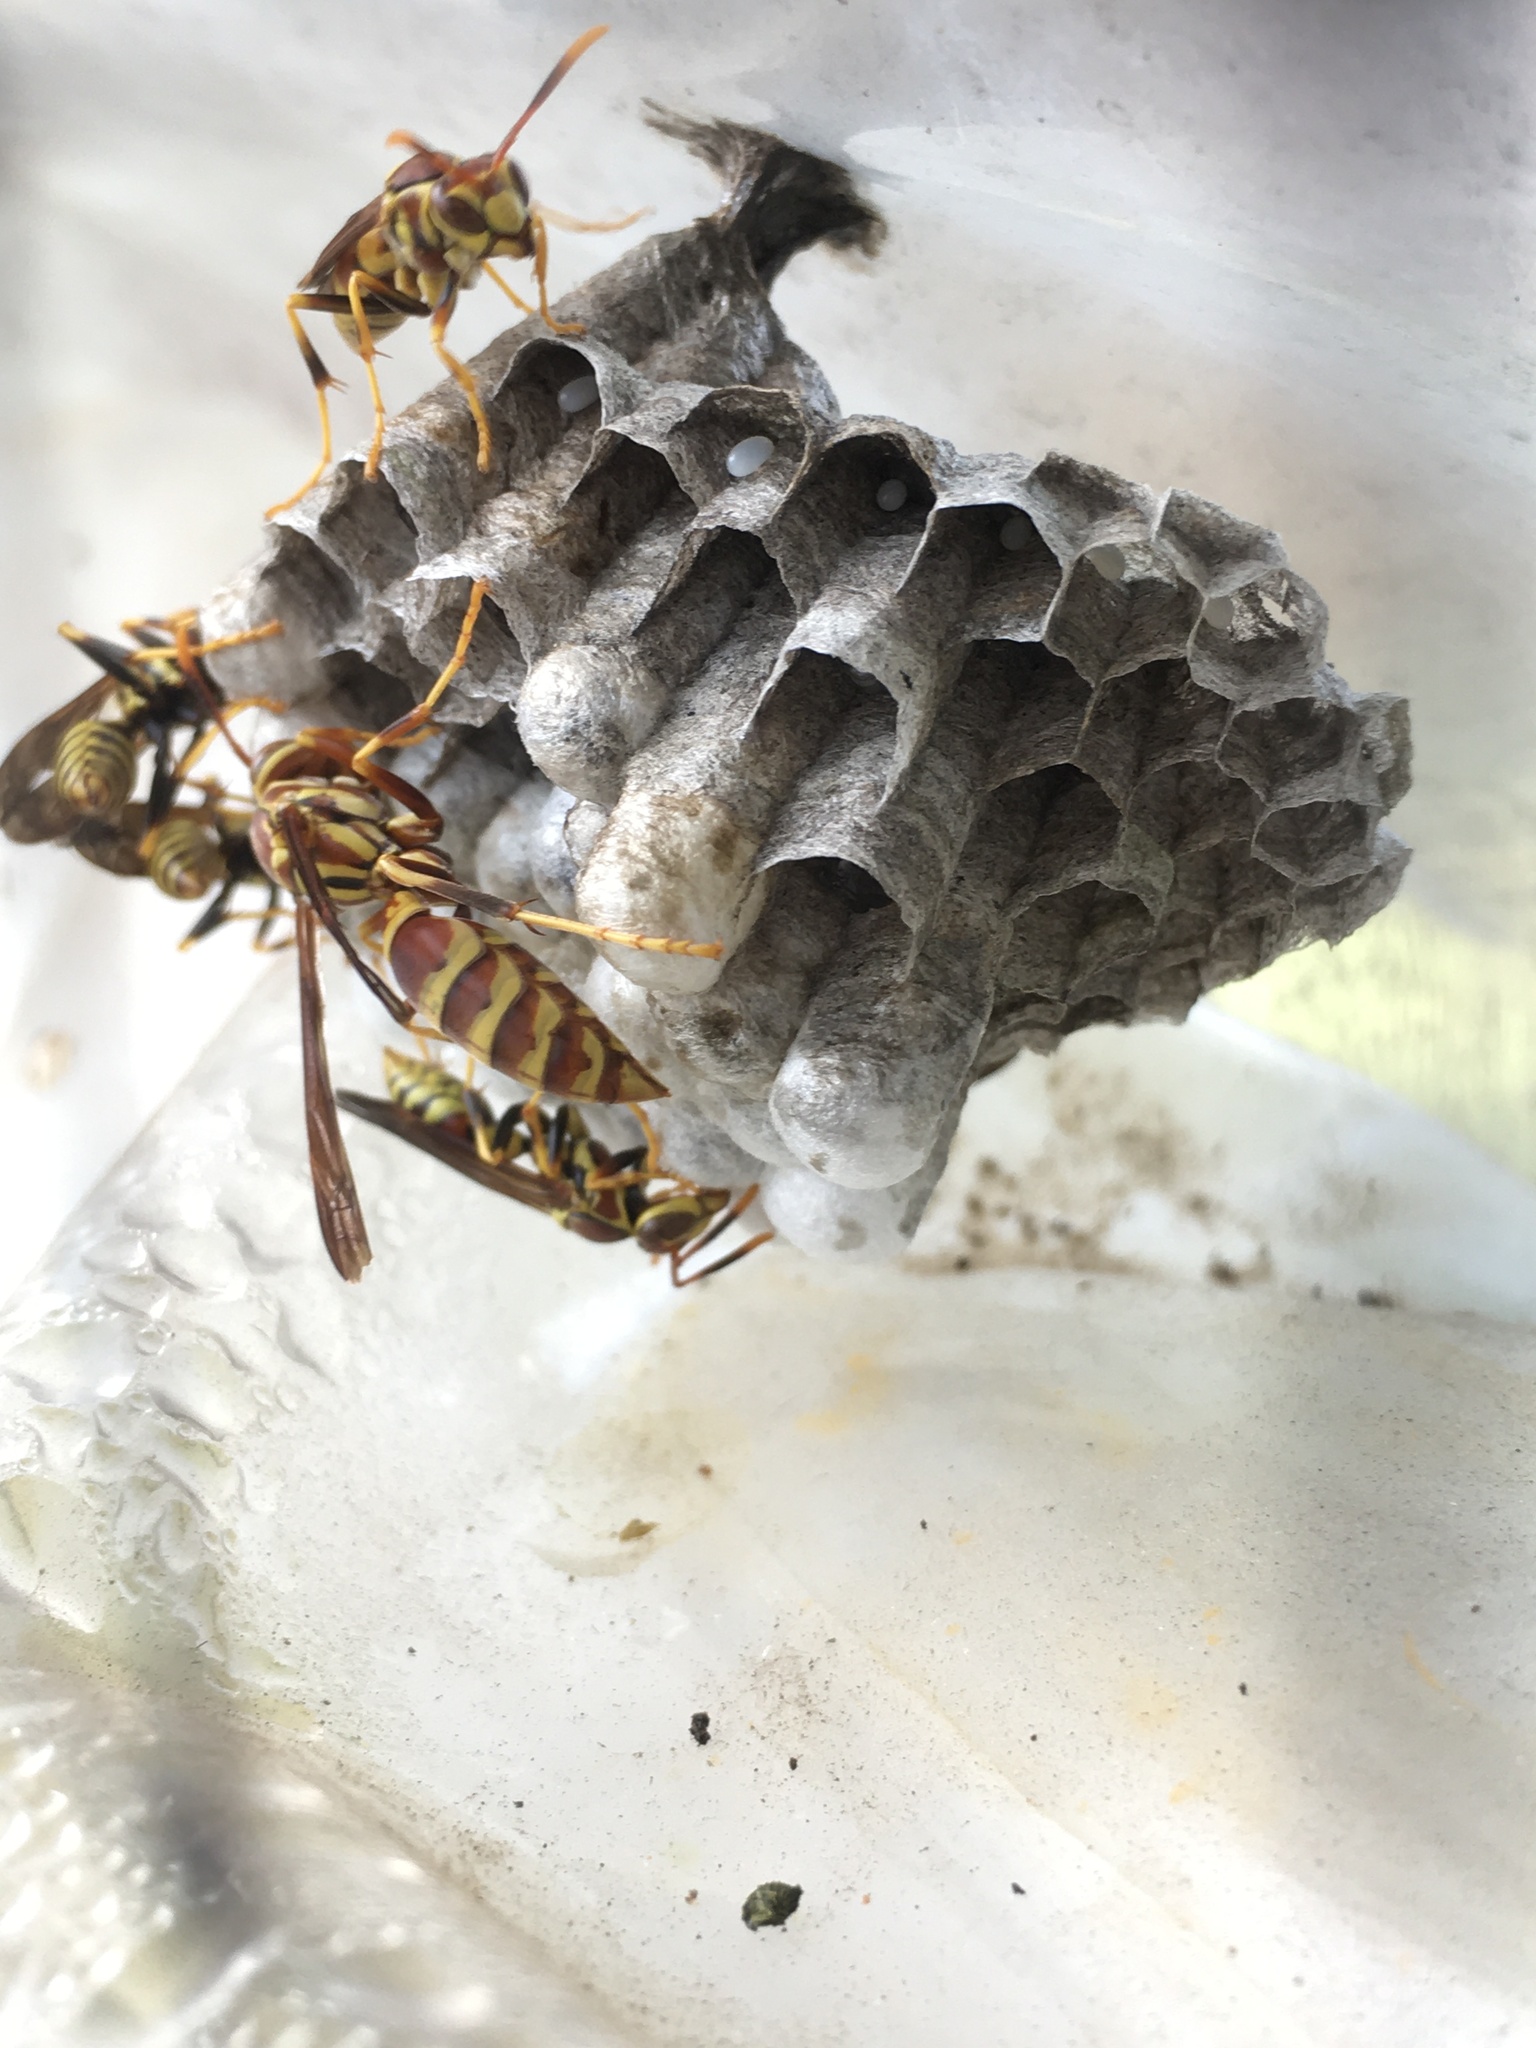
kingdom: Animalia
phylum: Arthropoda
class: Insecta
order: Hymenoptera
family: Eumenidae
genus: Polistes
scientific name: Polistes exclamans
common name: Paper wasp
